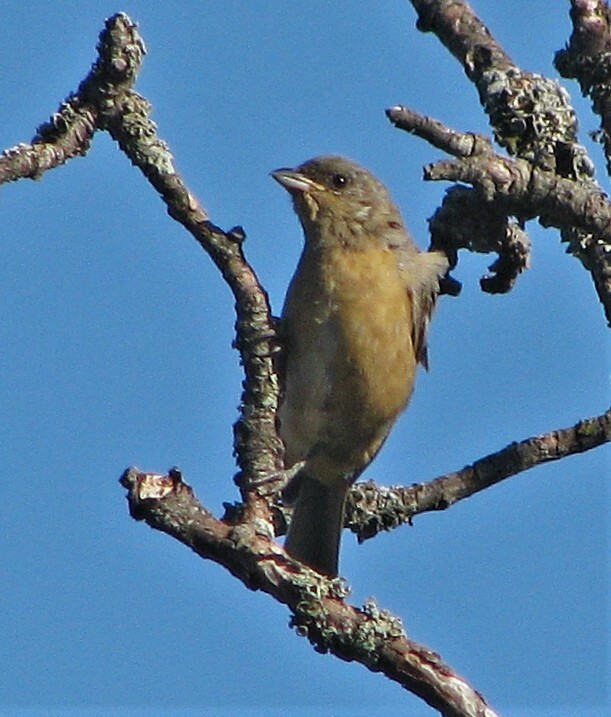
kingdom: Animalia
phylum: Chordata
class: Aves
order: Passeriformes
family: Thraupidae
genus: Rauenia
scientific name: Rauenia bonariensis
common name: Blue-and-yellow tanager
